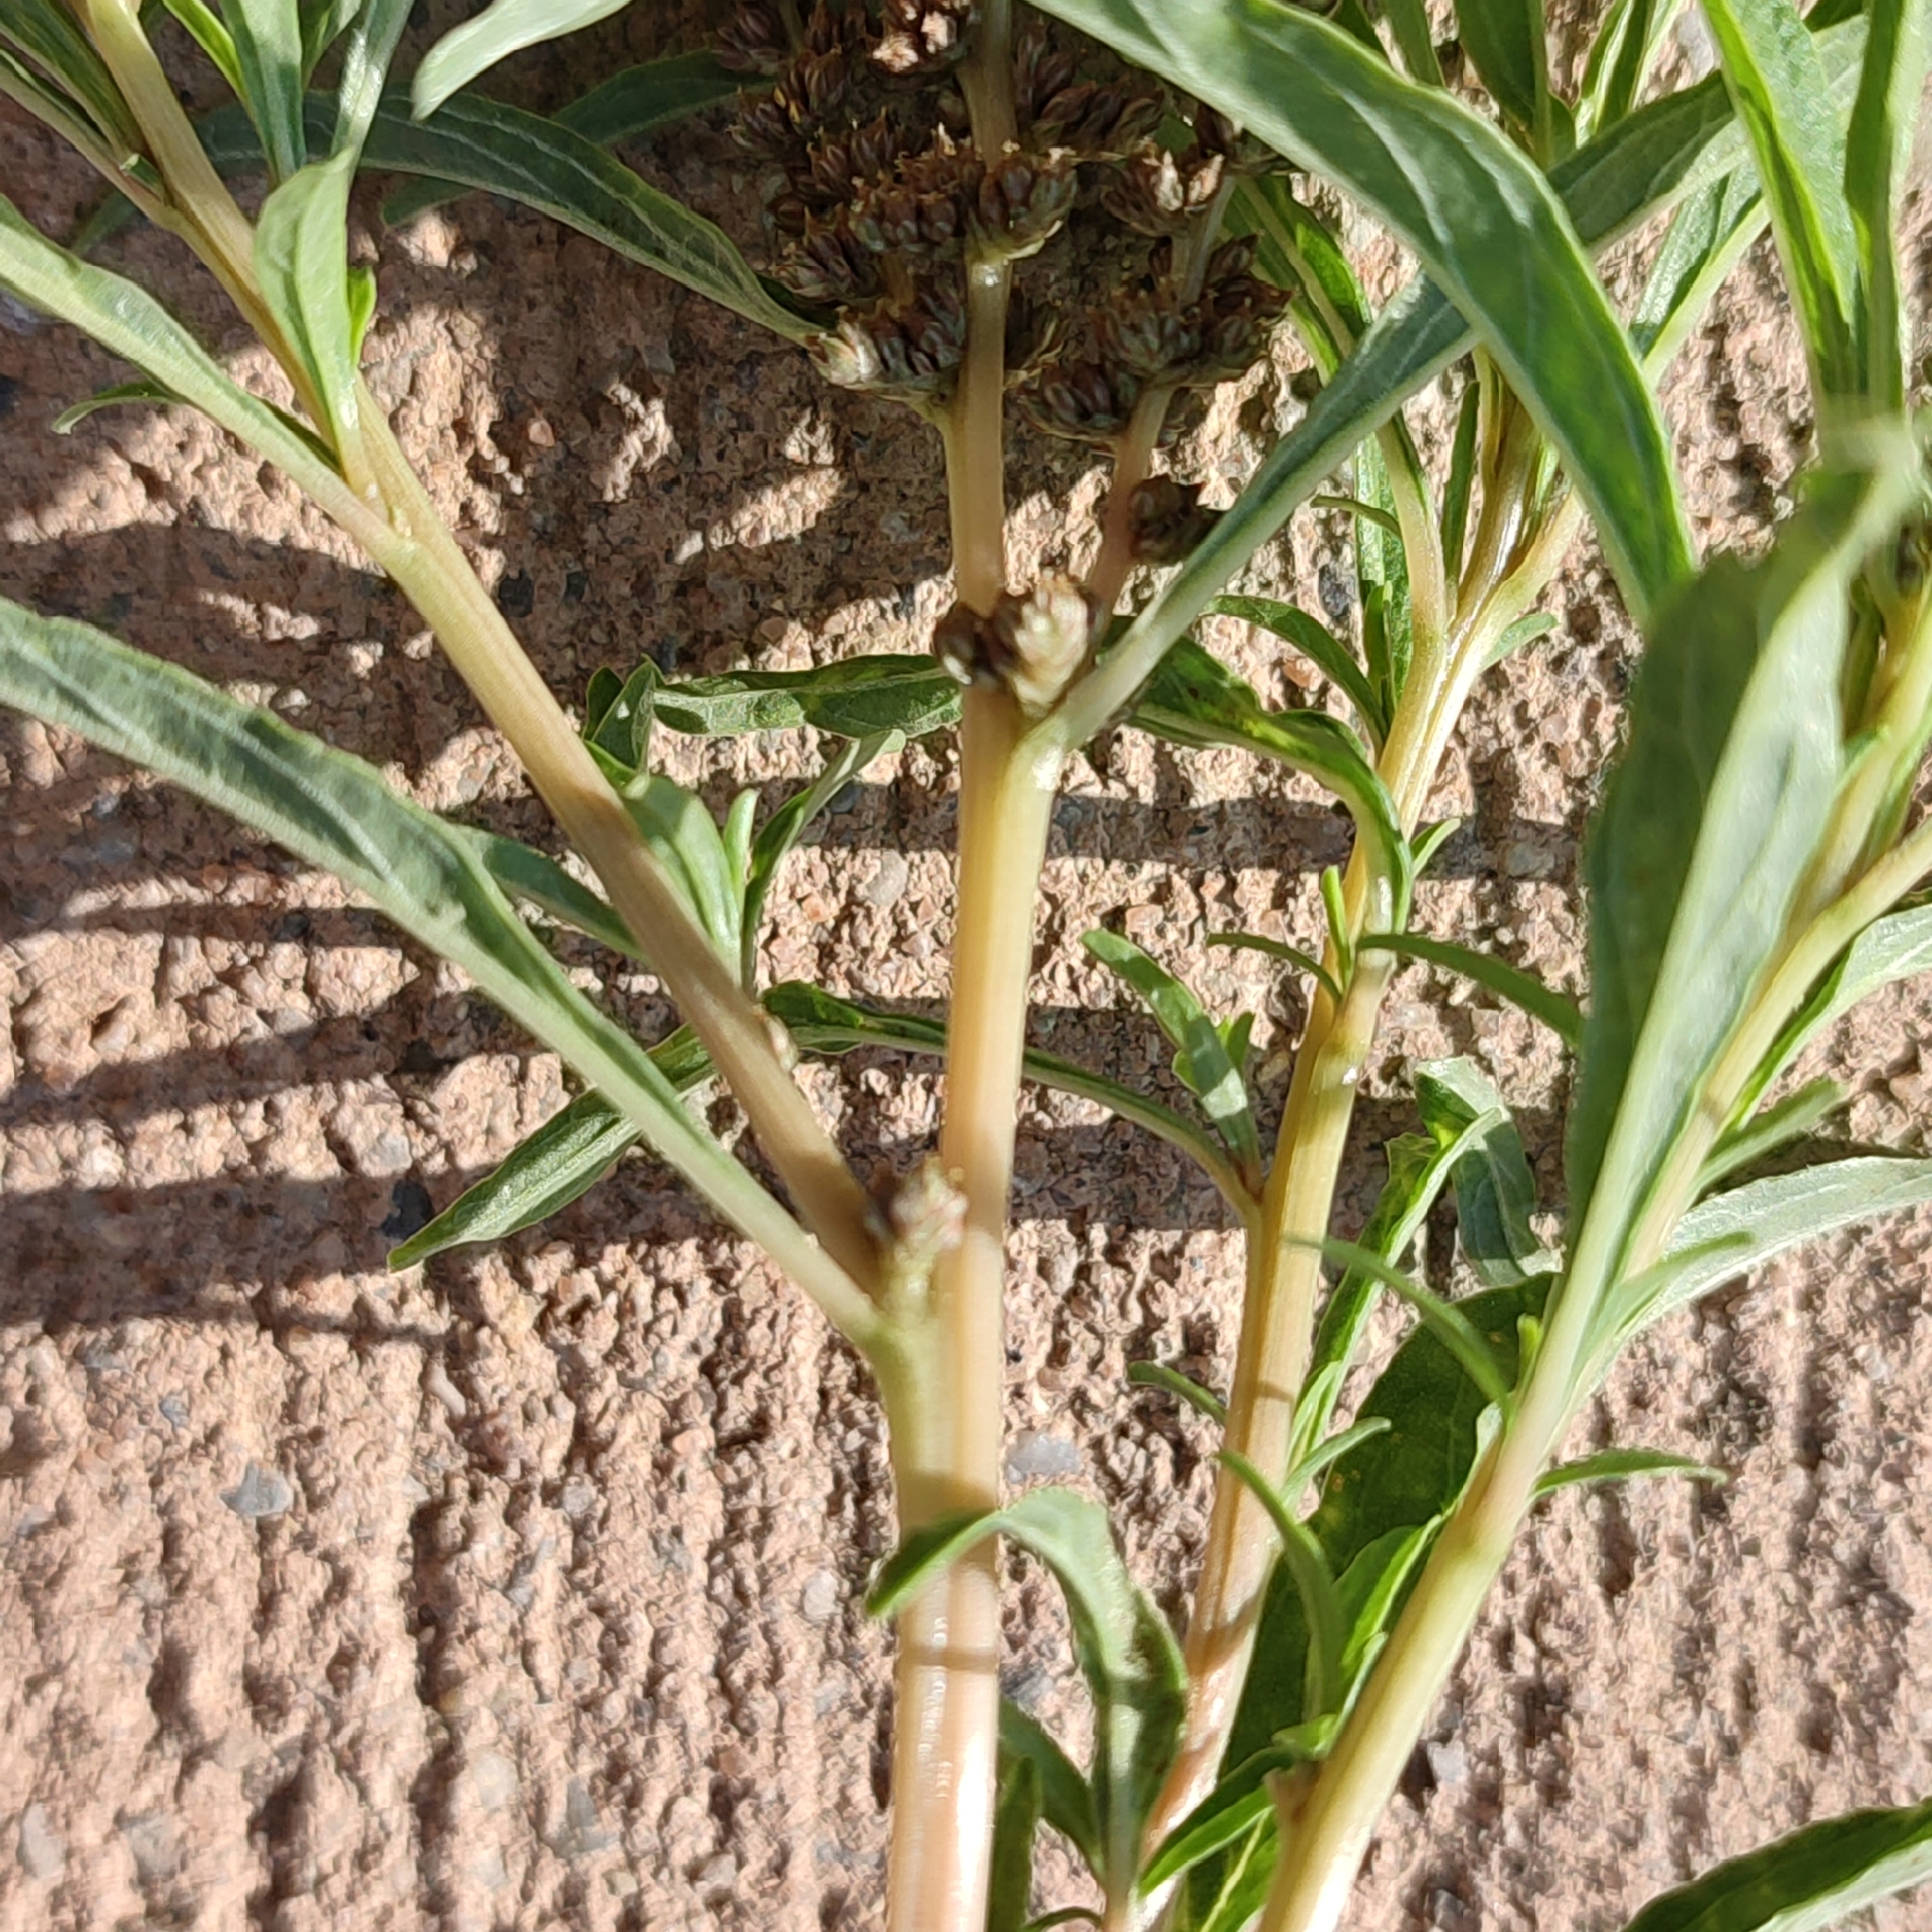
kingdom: Plantae
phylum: Tracheophyta
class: Magnoliopsida
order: Caryophyllales
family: Amaranthaceae
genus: Amaranthus
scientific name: Amaranthus muricatus
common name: African amaranth
